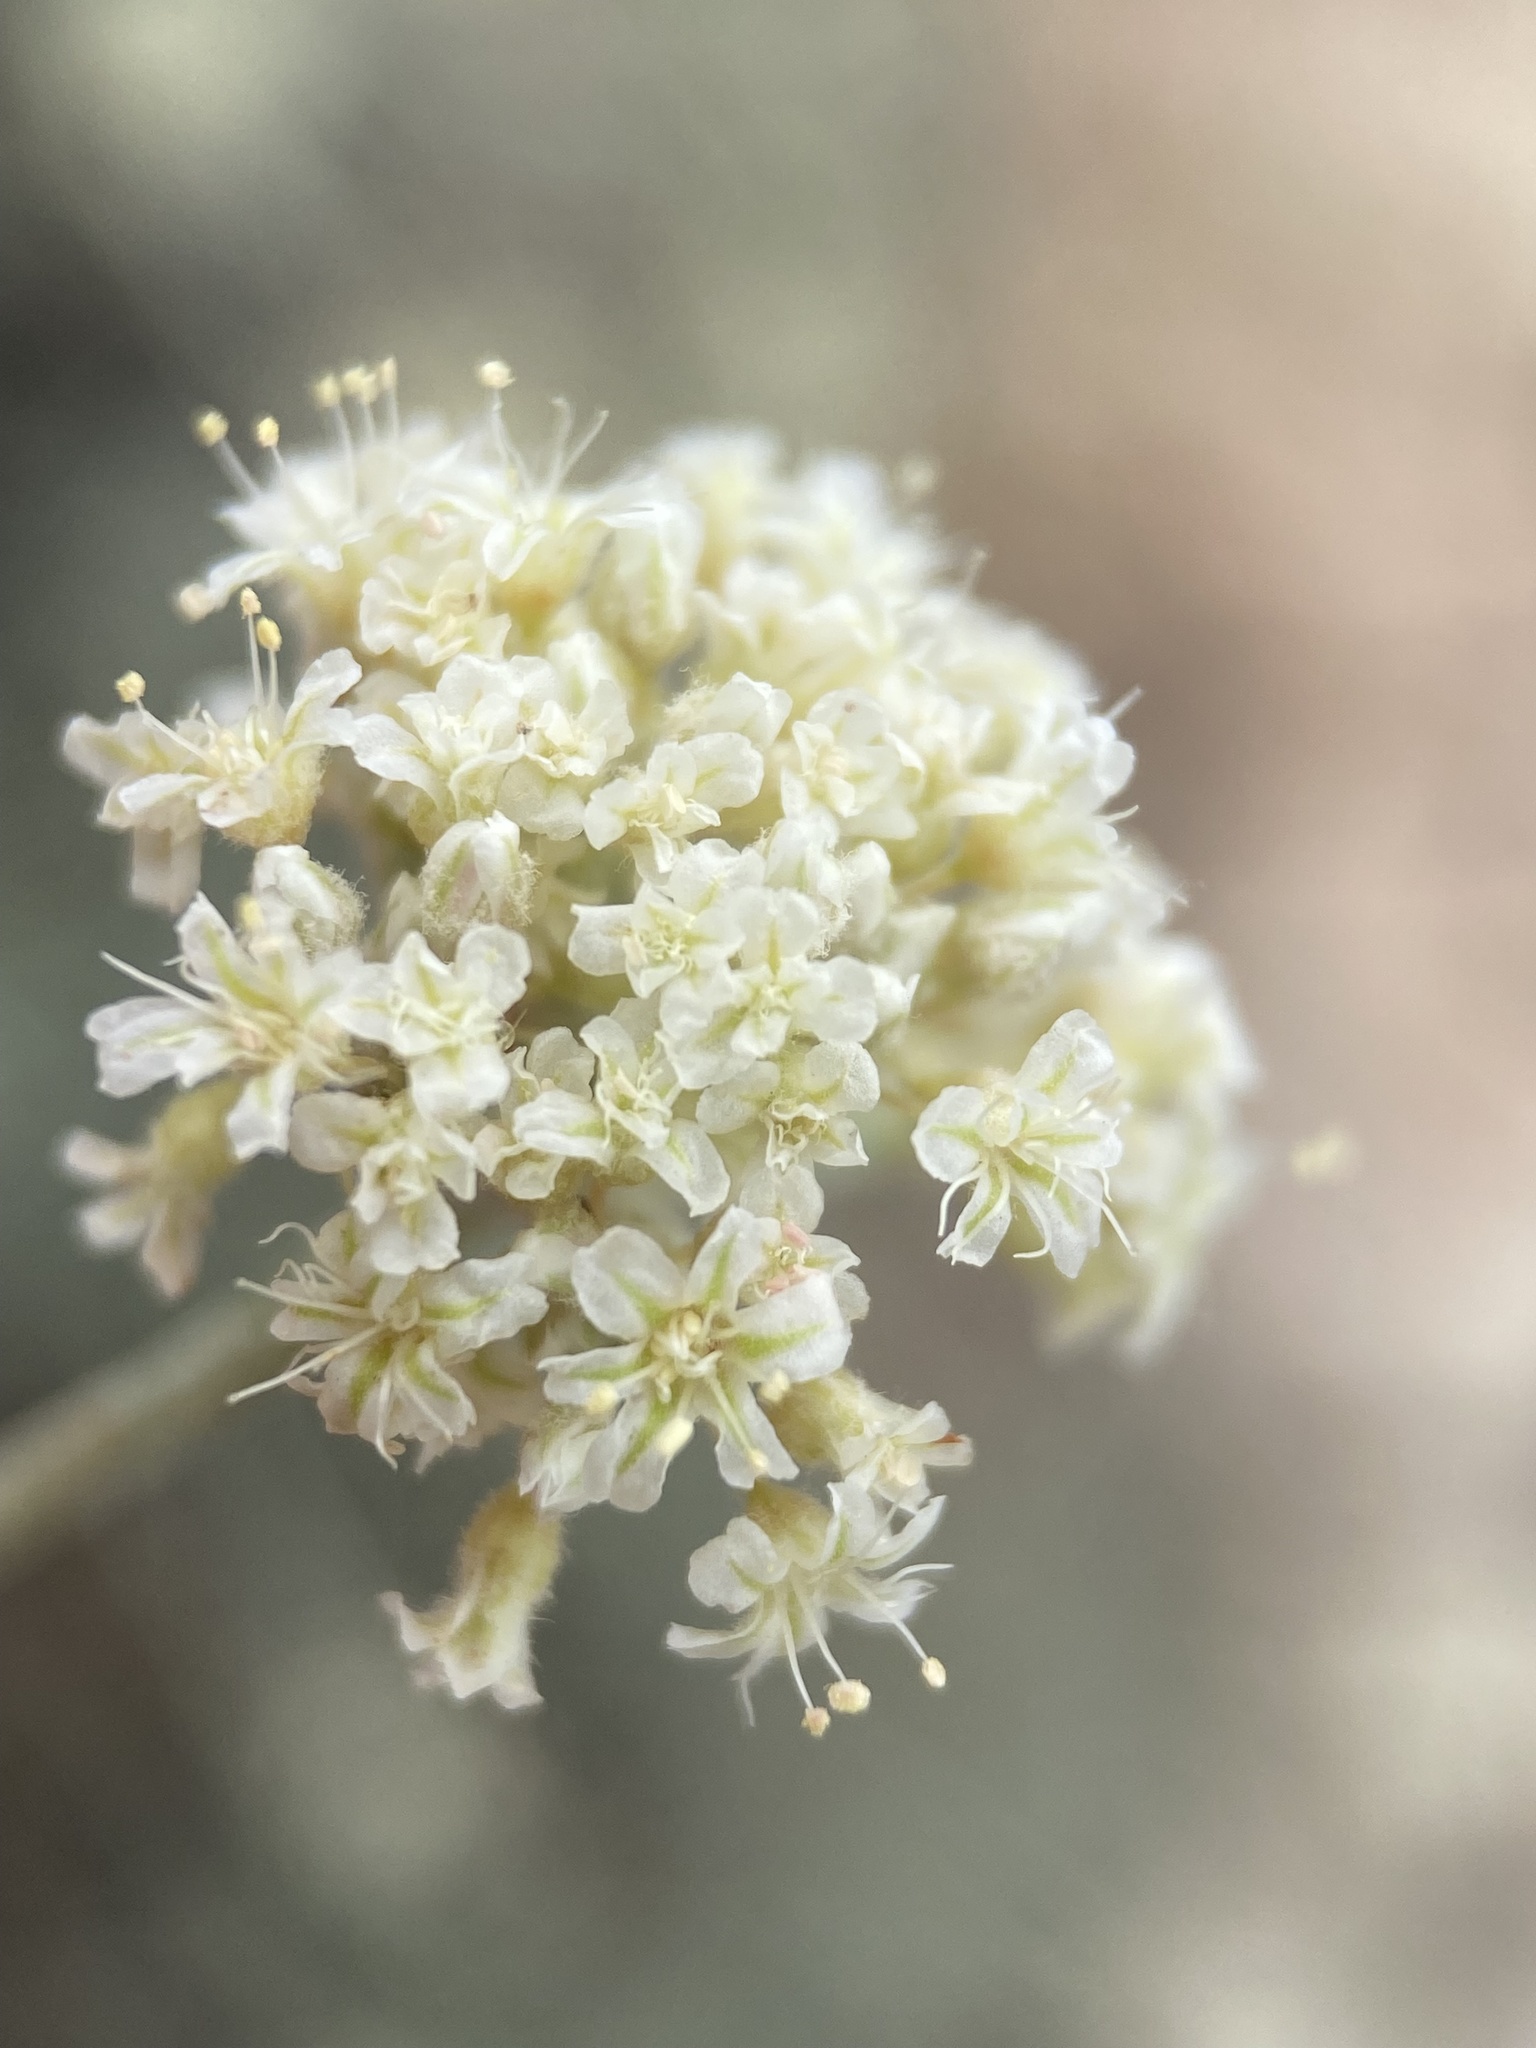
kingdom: Plantae
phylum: Tracheophyta
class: Magnoliopsida
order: Caryophyllales
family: Polygonaceae
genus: Eriogonum
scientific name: Eriogonum pauciflorum
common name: Few-flower wild buckwheat
